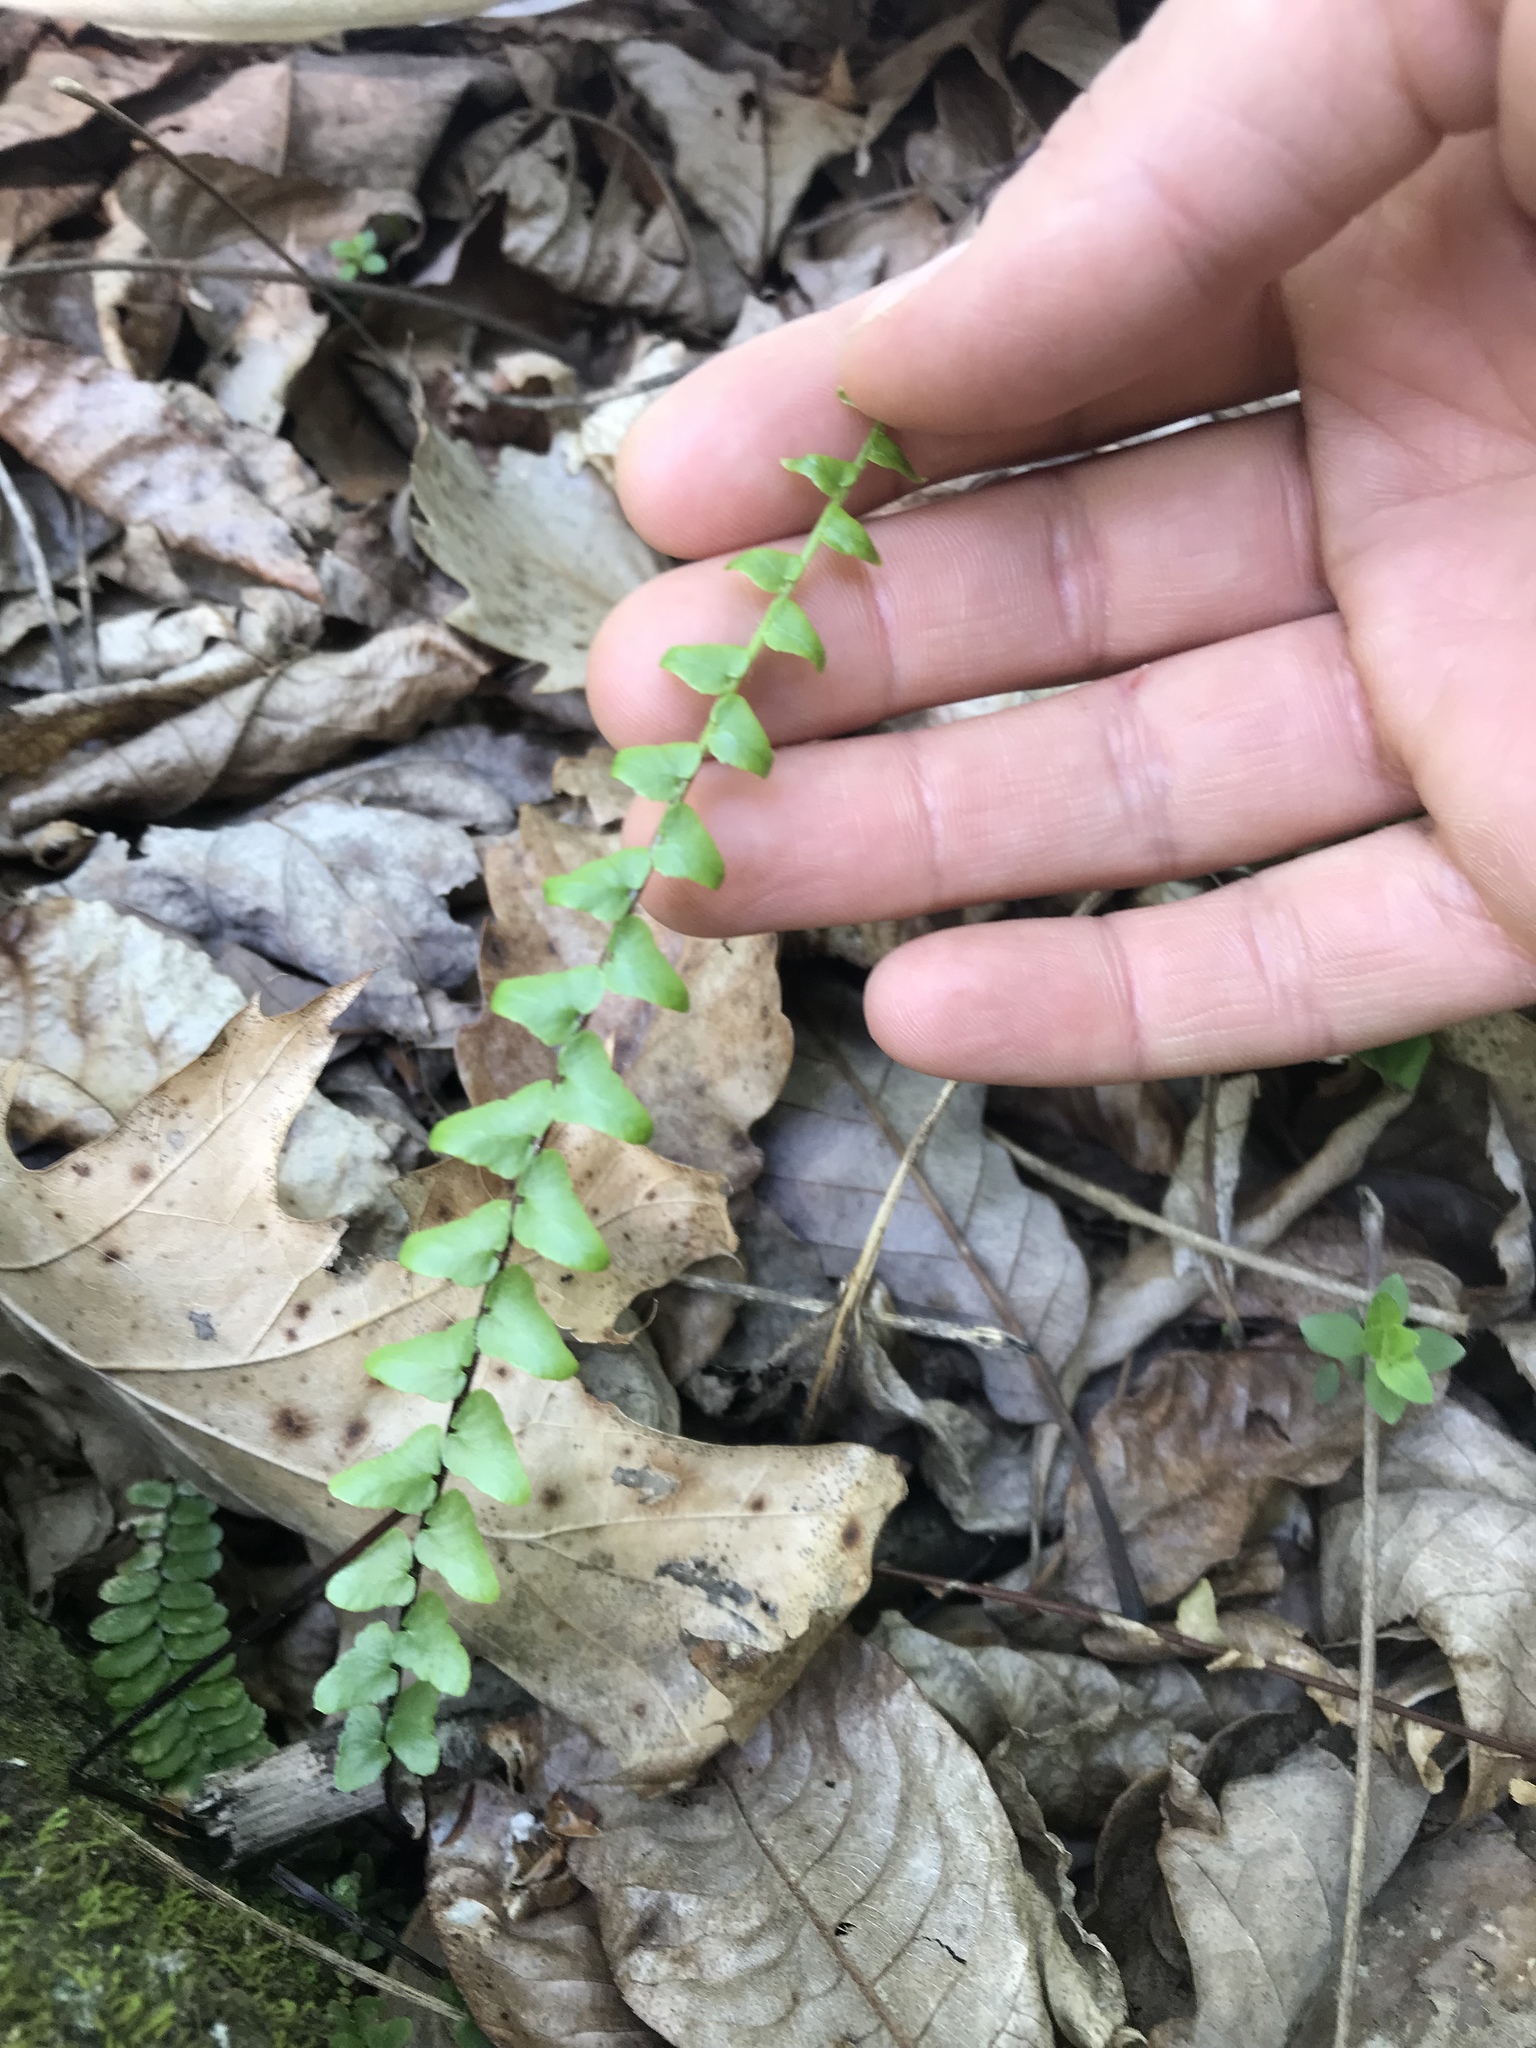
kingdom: Plantae
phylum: Tracheophyta
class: Polypodiopsida
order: Polypodiales
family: Aspleniaceae
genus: Asplenium
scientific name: Asplenium platyneuron
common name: Ebony spleenwort
